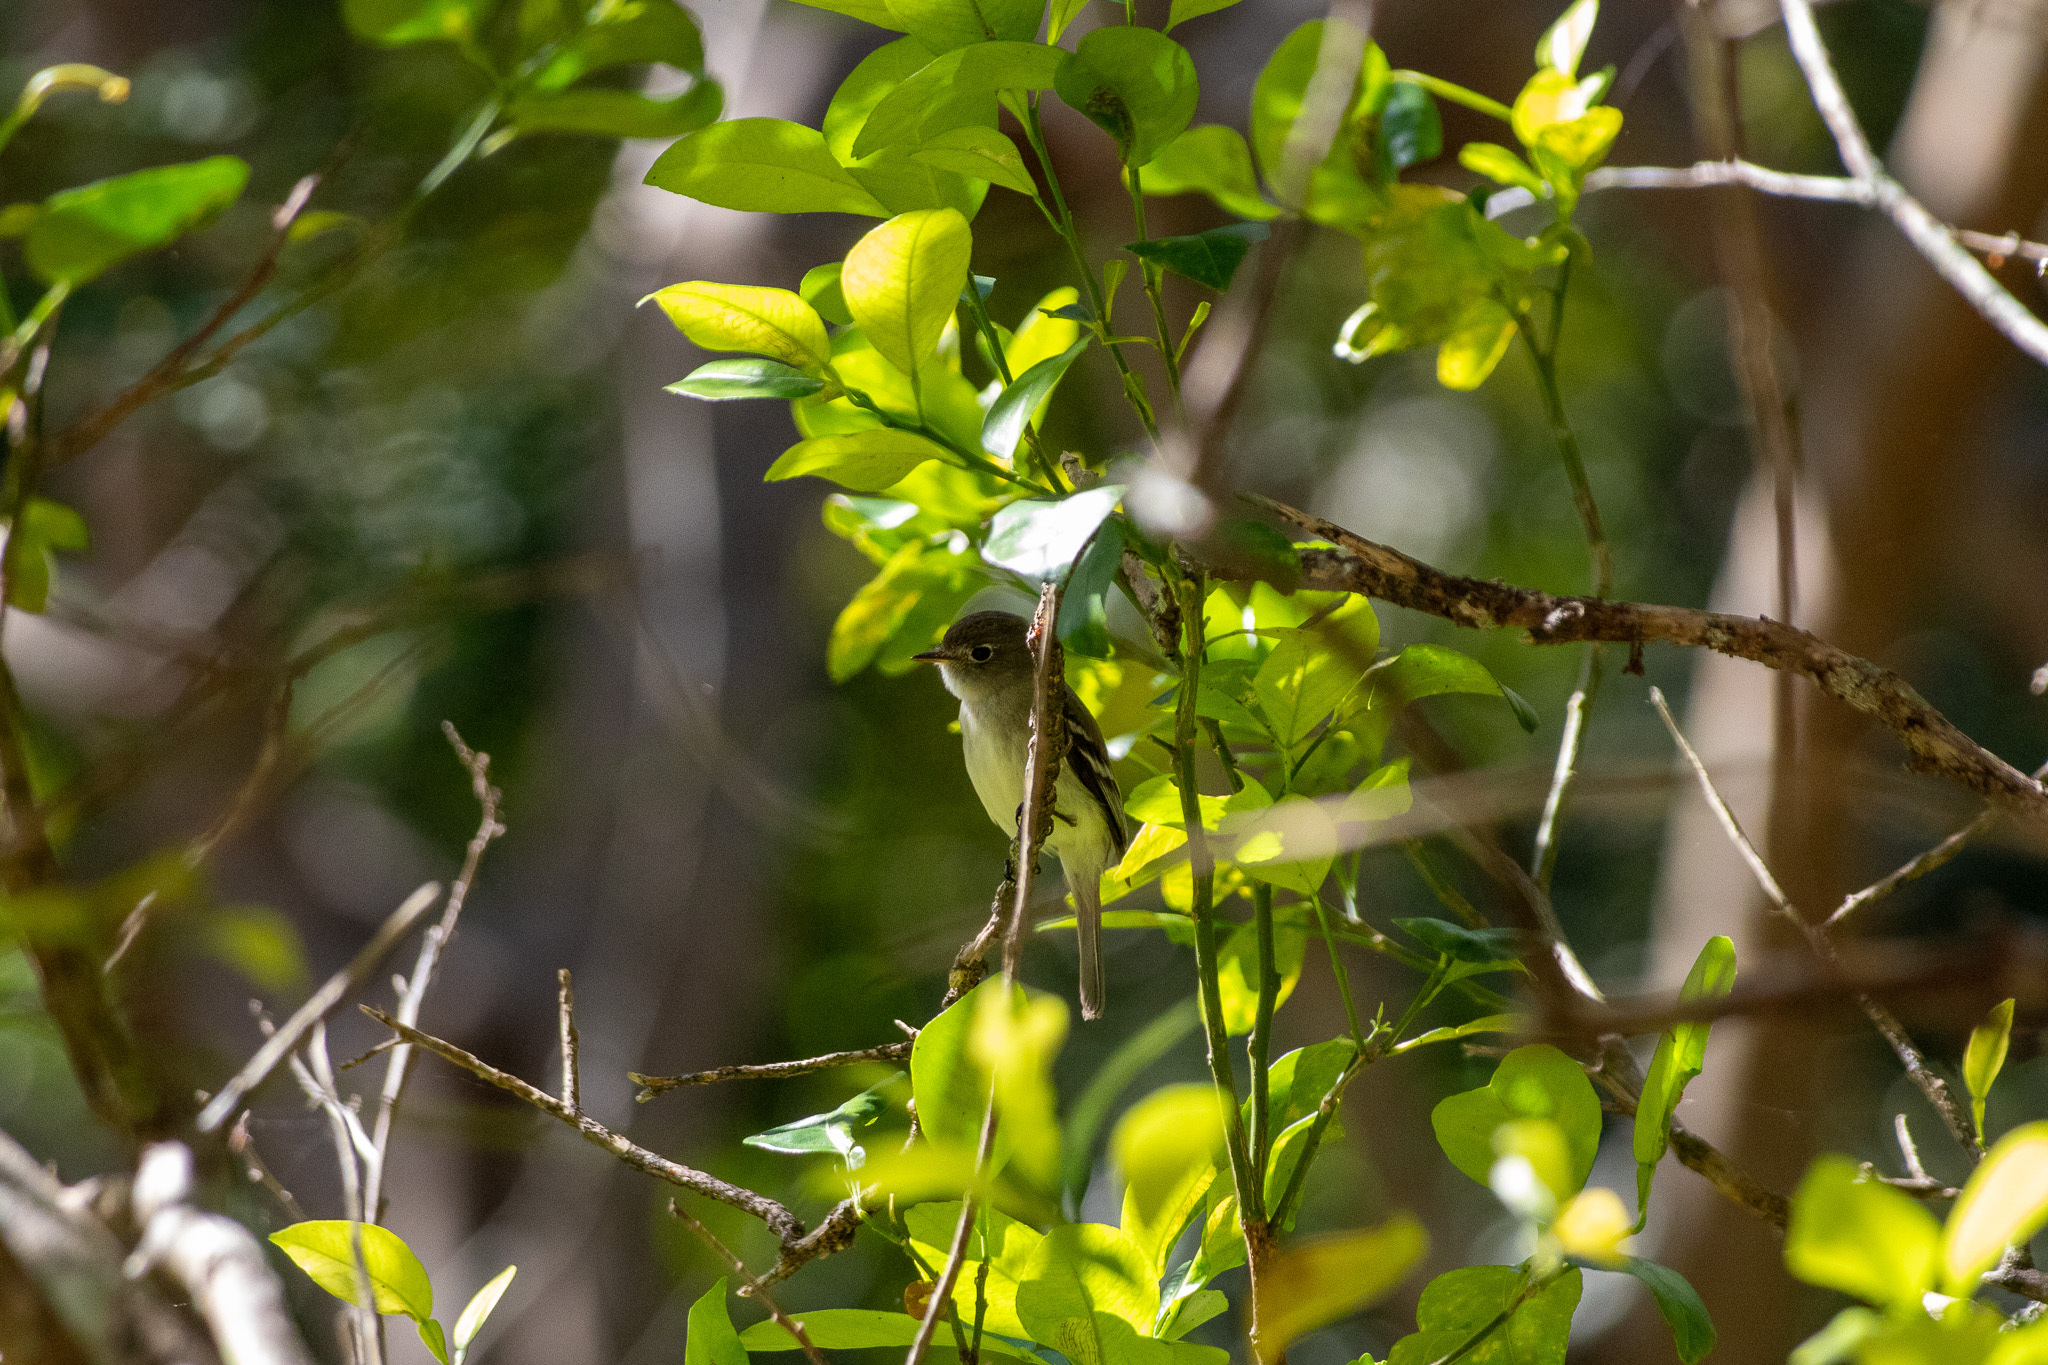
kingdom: Animalia
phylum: Chordata
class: Aves
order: Passeriformes
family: Tyrannidae
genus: Empidonax
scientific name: Empidonax minimus
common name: Least flycatcher
